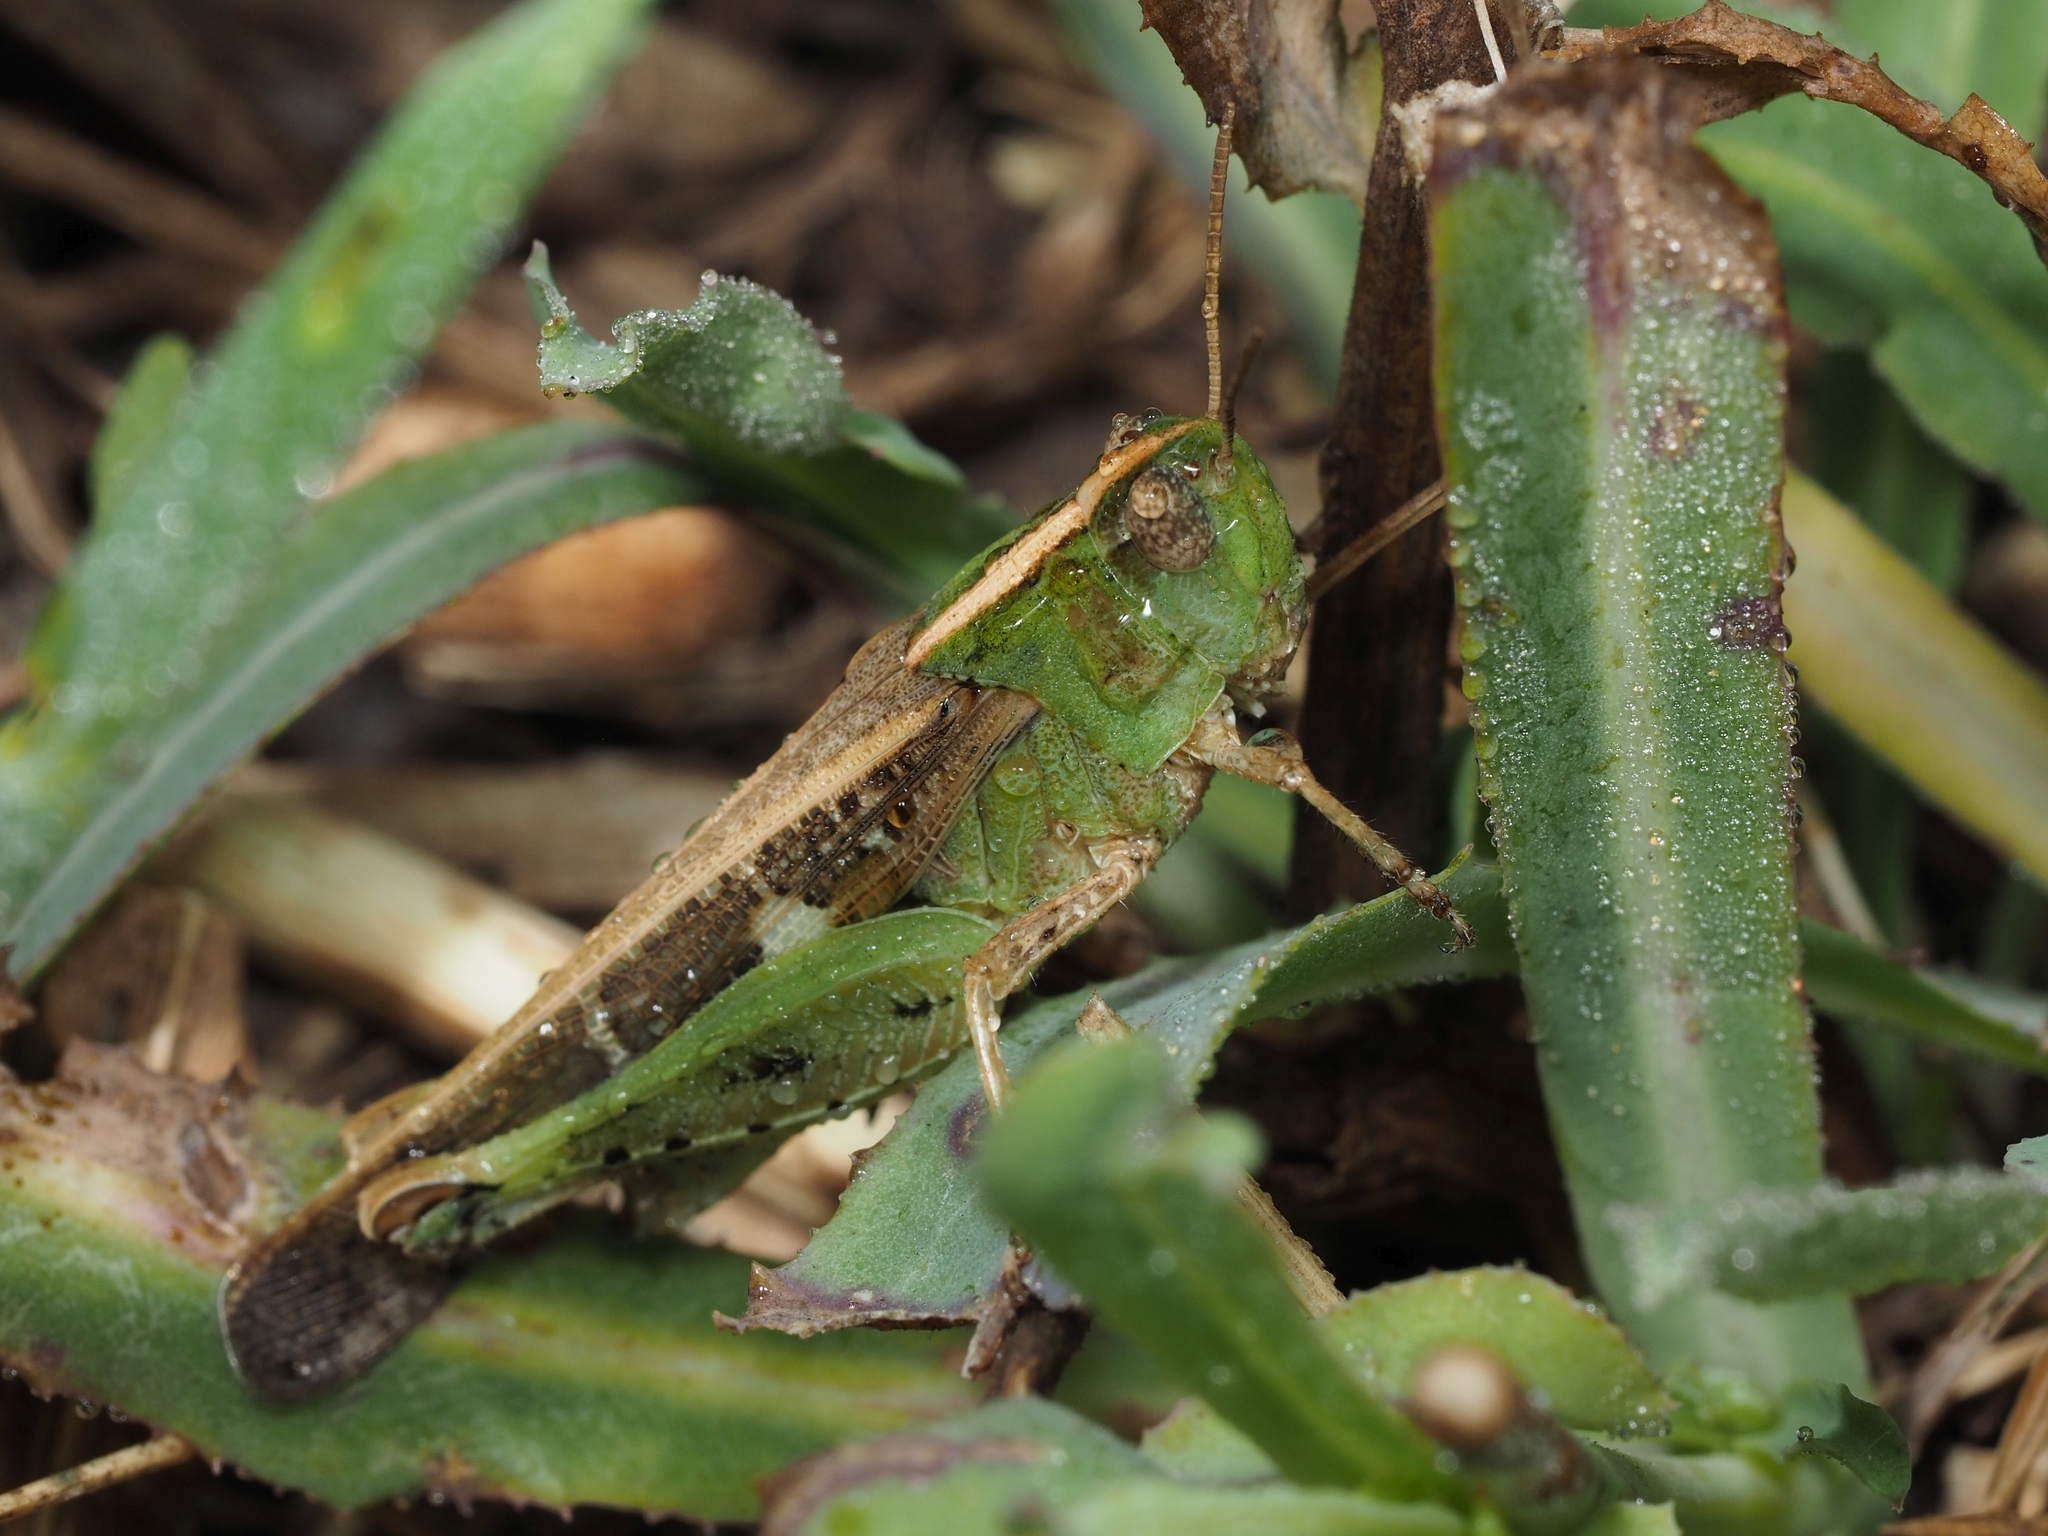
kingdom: Animalia
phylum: Arthropoda
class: Insecta
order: Orthoptera
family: Acrididae
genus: Aiolopus
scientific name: Aiolopus strepens
